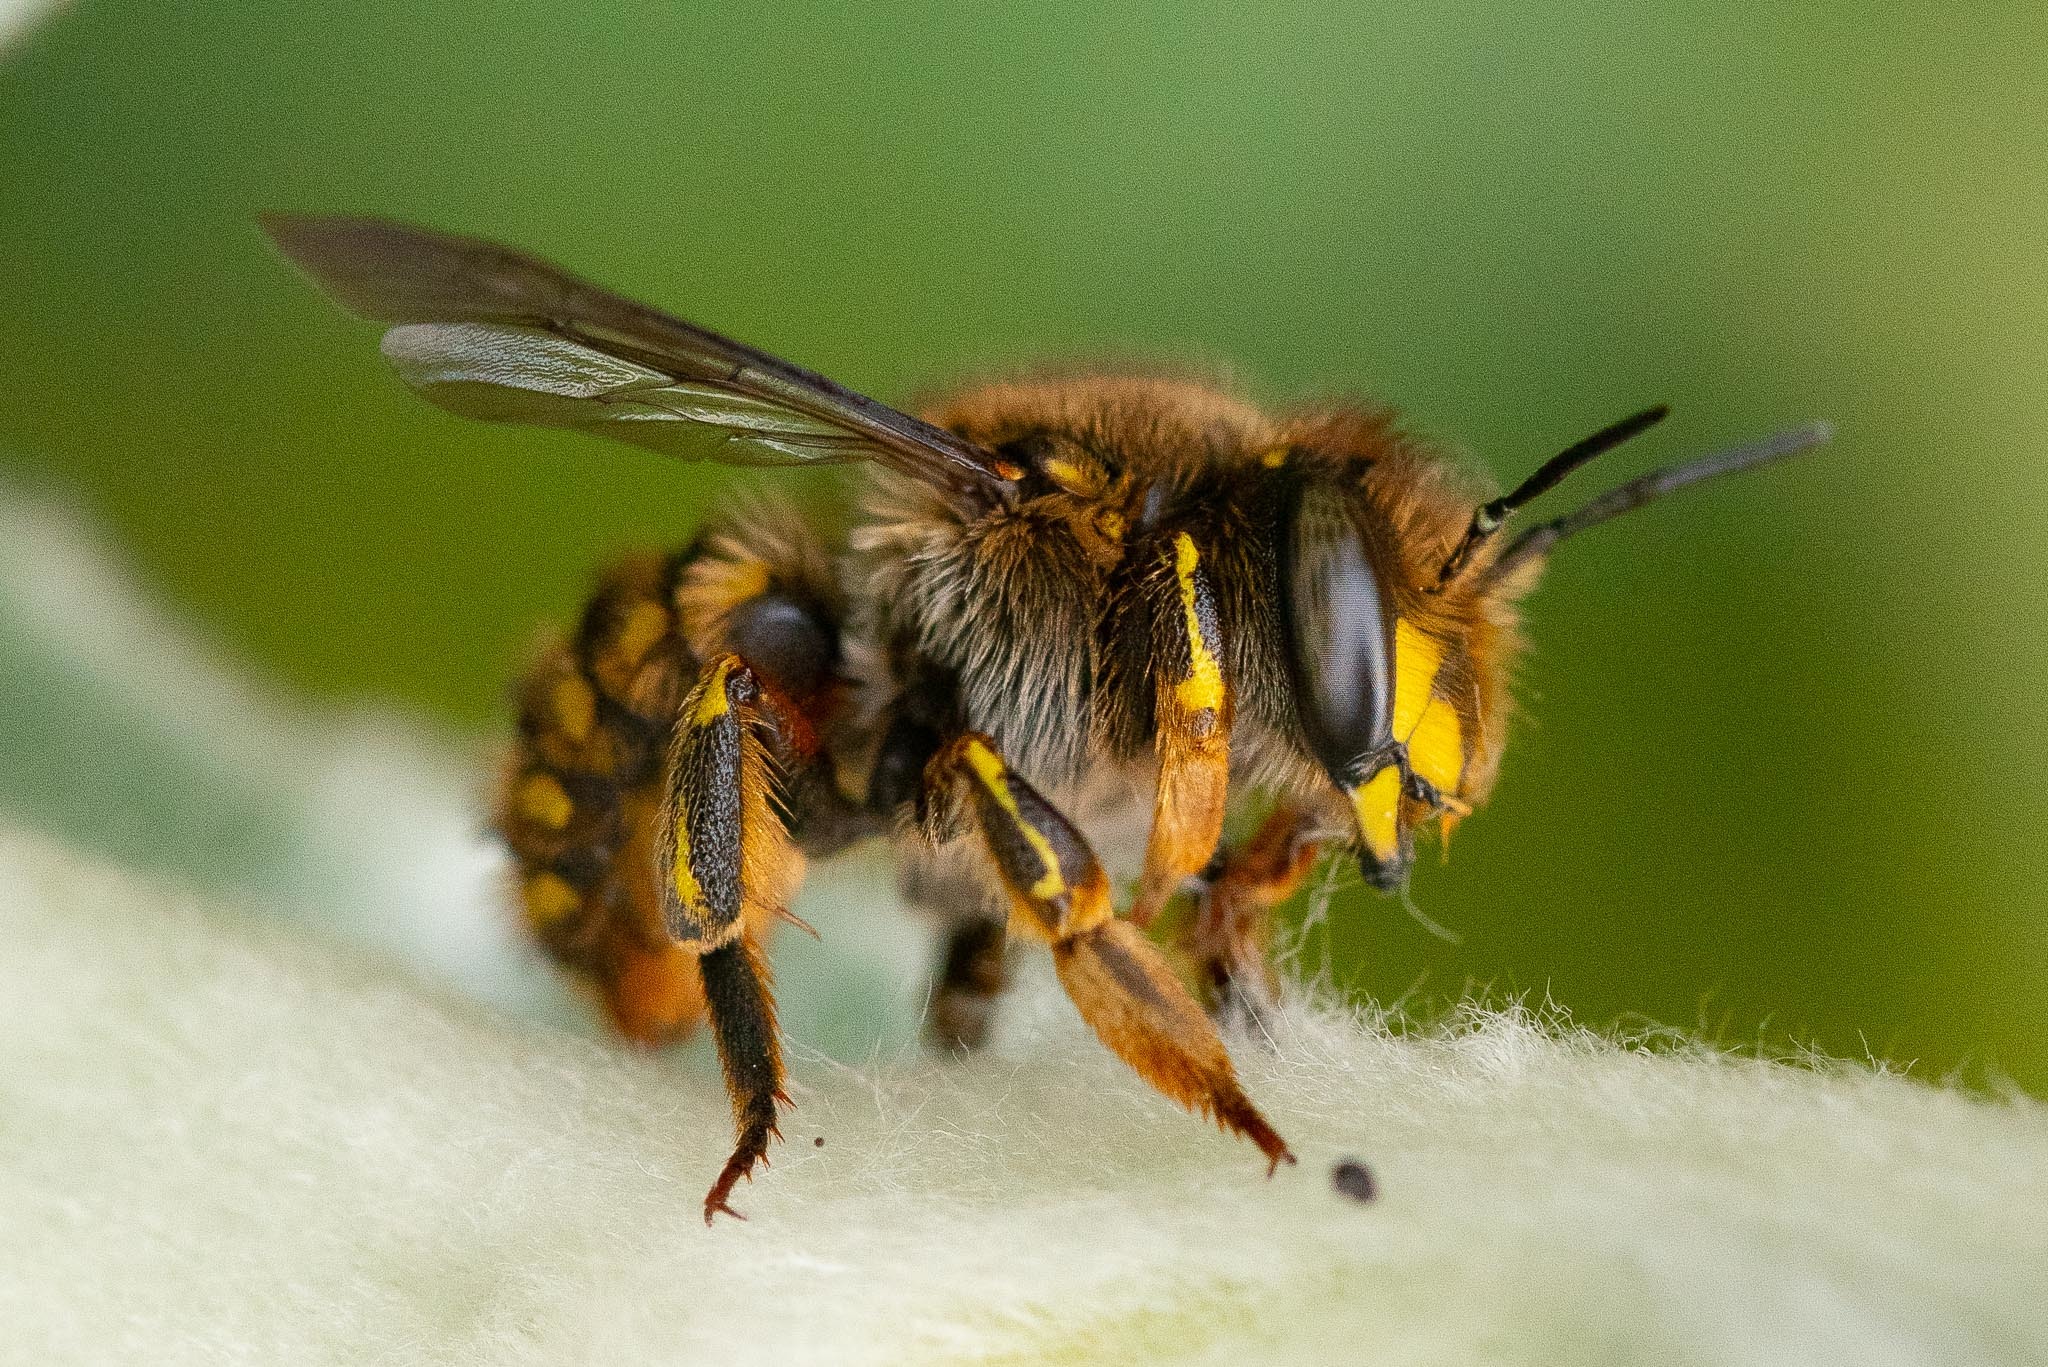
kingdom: Animalia
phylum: Arthropoda
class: Insecta
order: Hymenoptera
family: Megachilidae
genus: Anthidium
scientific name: Anthidium manicatum
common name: Wool carder bee
